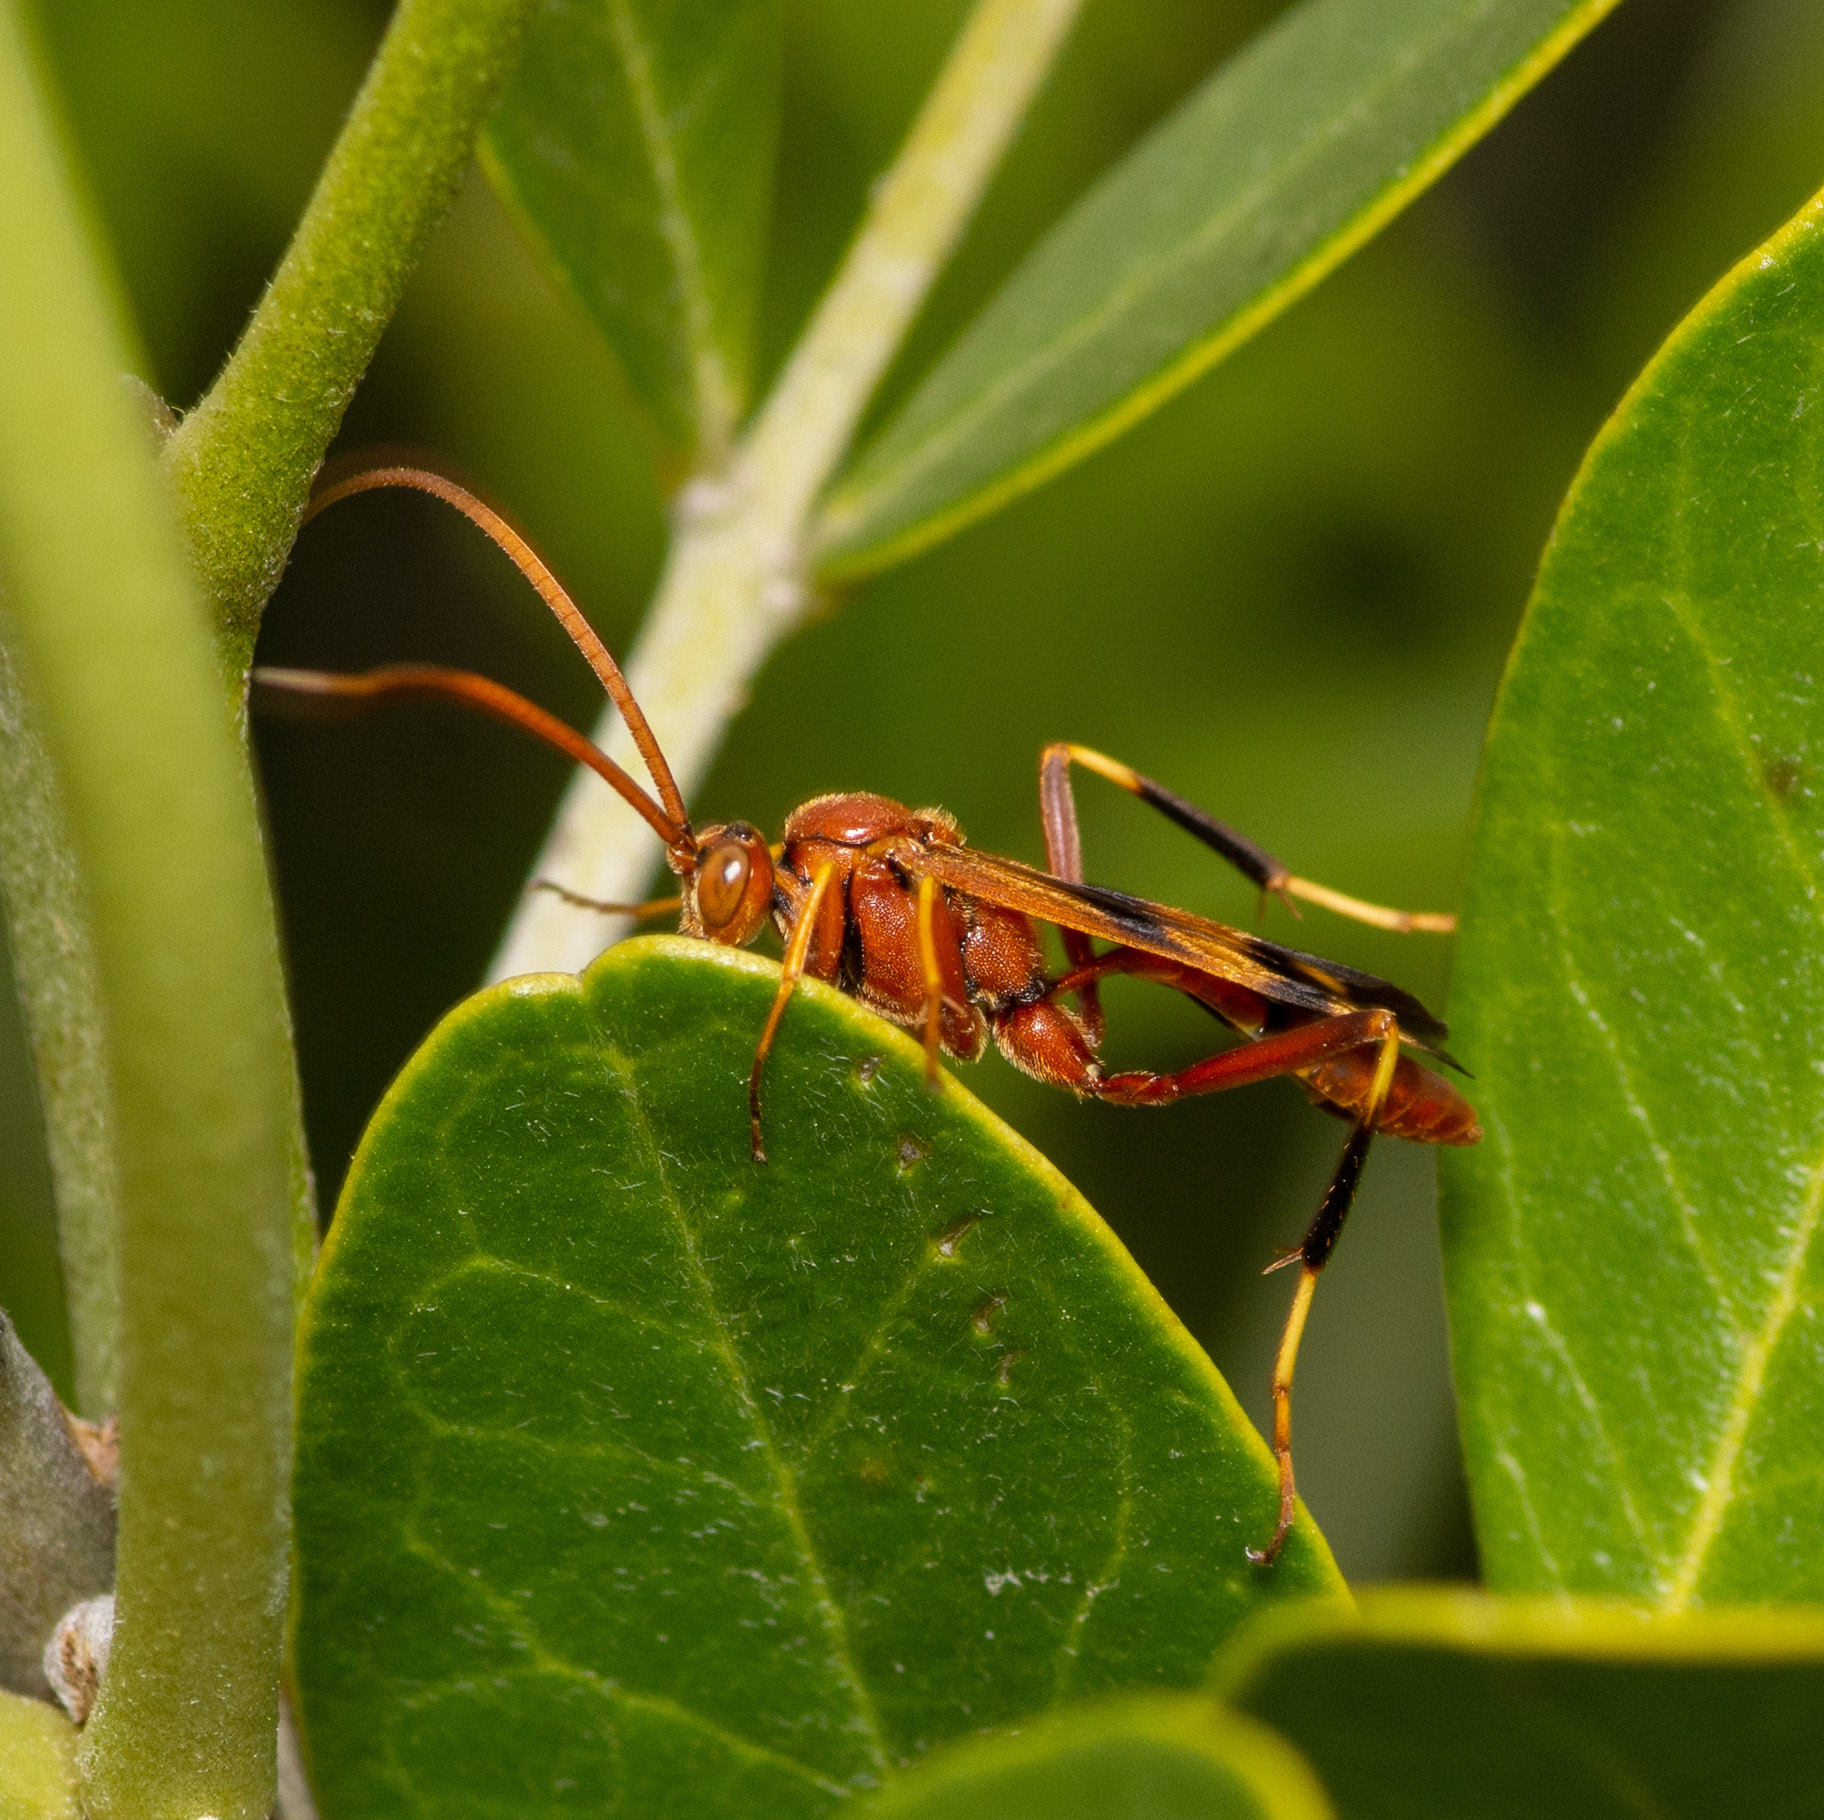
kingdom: Animalia
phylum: Arthropoda
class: Insecta
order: Hymenoptera
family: Ichneumonidae
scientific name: Ichneumonidae
